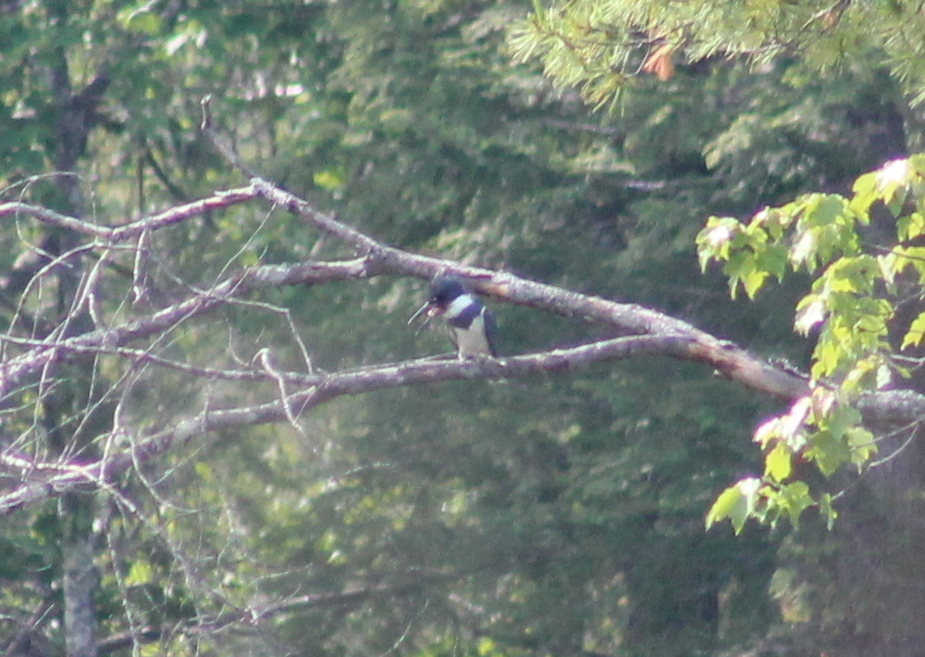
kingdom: Animalia
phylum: Chordata
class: Aves
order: Coraciiformes
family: Alcedinidae
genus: Megaceryle
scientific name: Megaceryle alcyon
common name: Belted kingfisher
